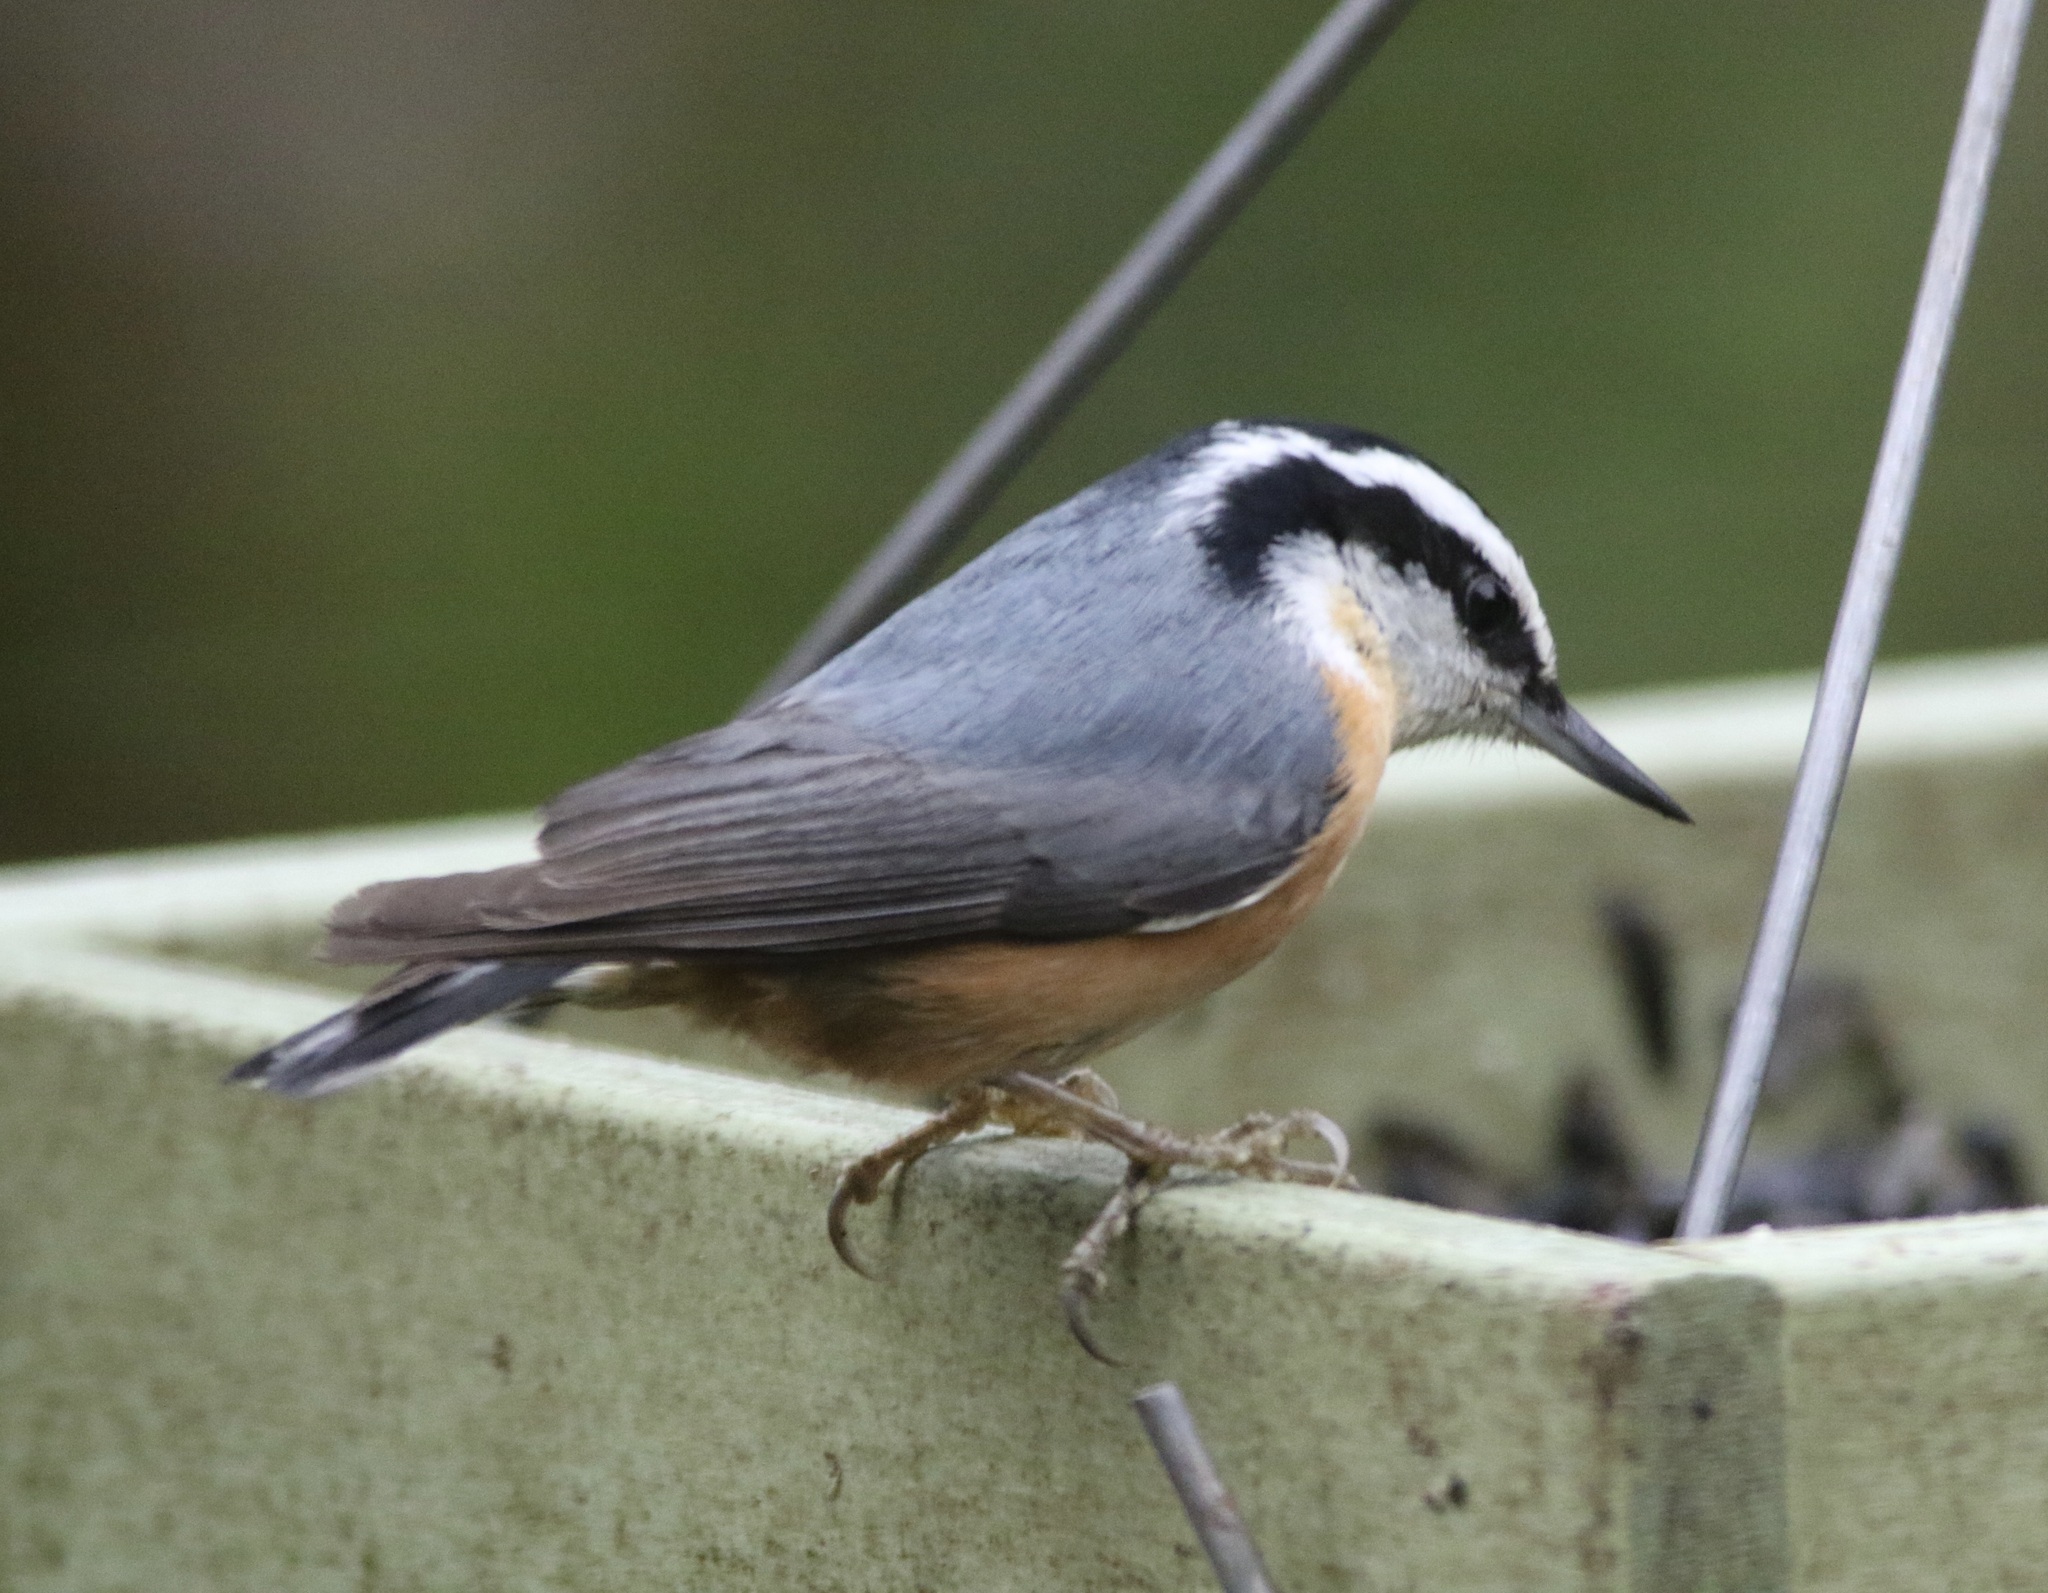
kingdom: Animalia
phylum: Chordata
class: Aves
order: Passeriformes
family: Sittidae
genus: Sitta
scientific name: Sitta canadensis
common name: Red-breasted nuthatch
